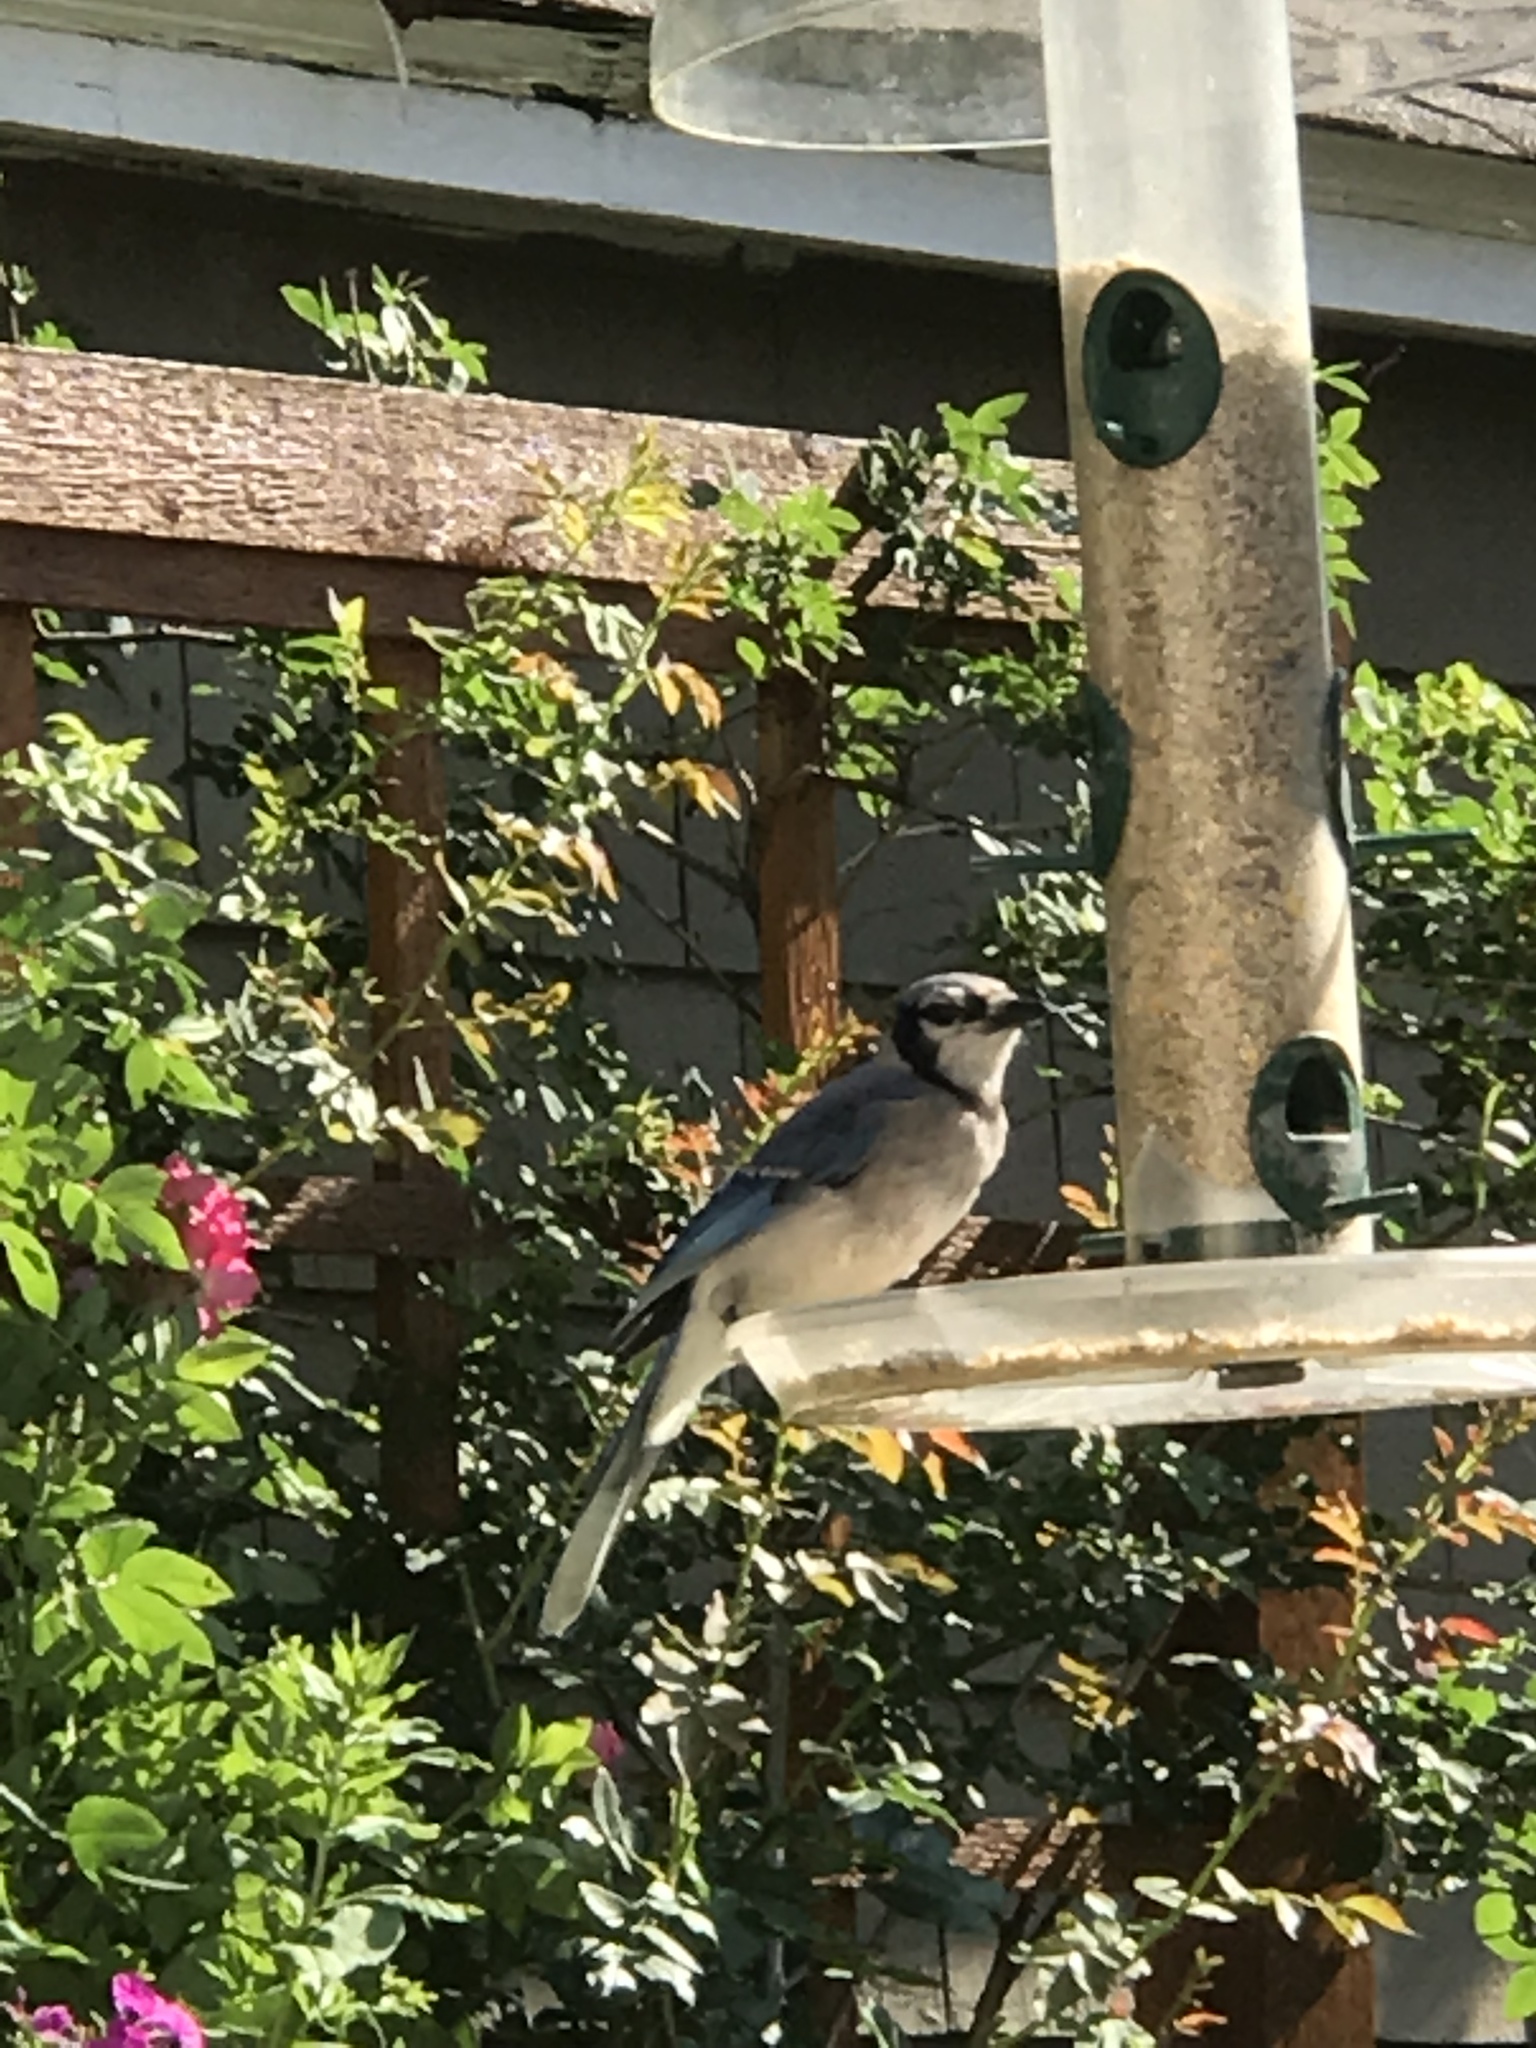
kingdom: Animalia
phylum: Chordata
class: Aves
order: Passeriformes
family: Corvidae
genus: Cyanocitta
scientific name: Cyanocitta cristata
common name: Blue jay
